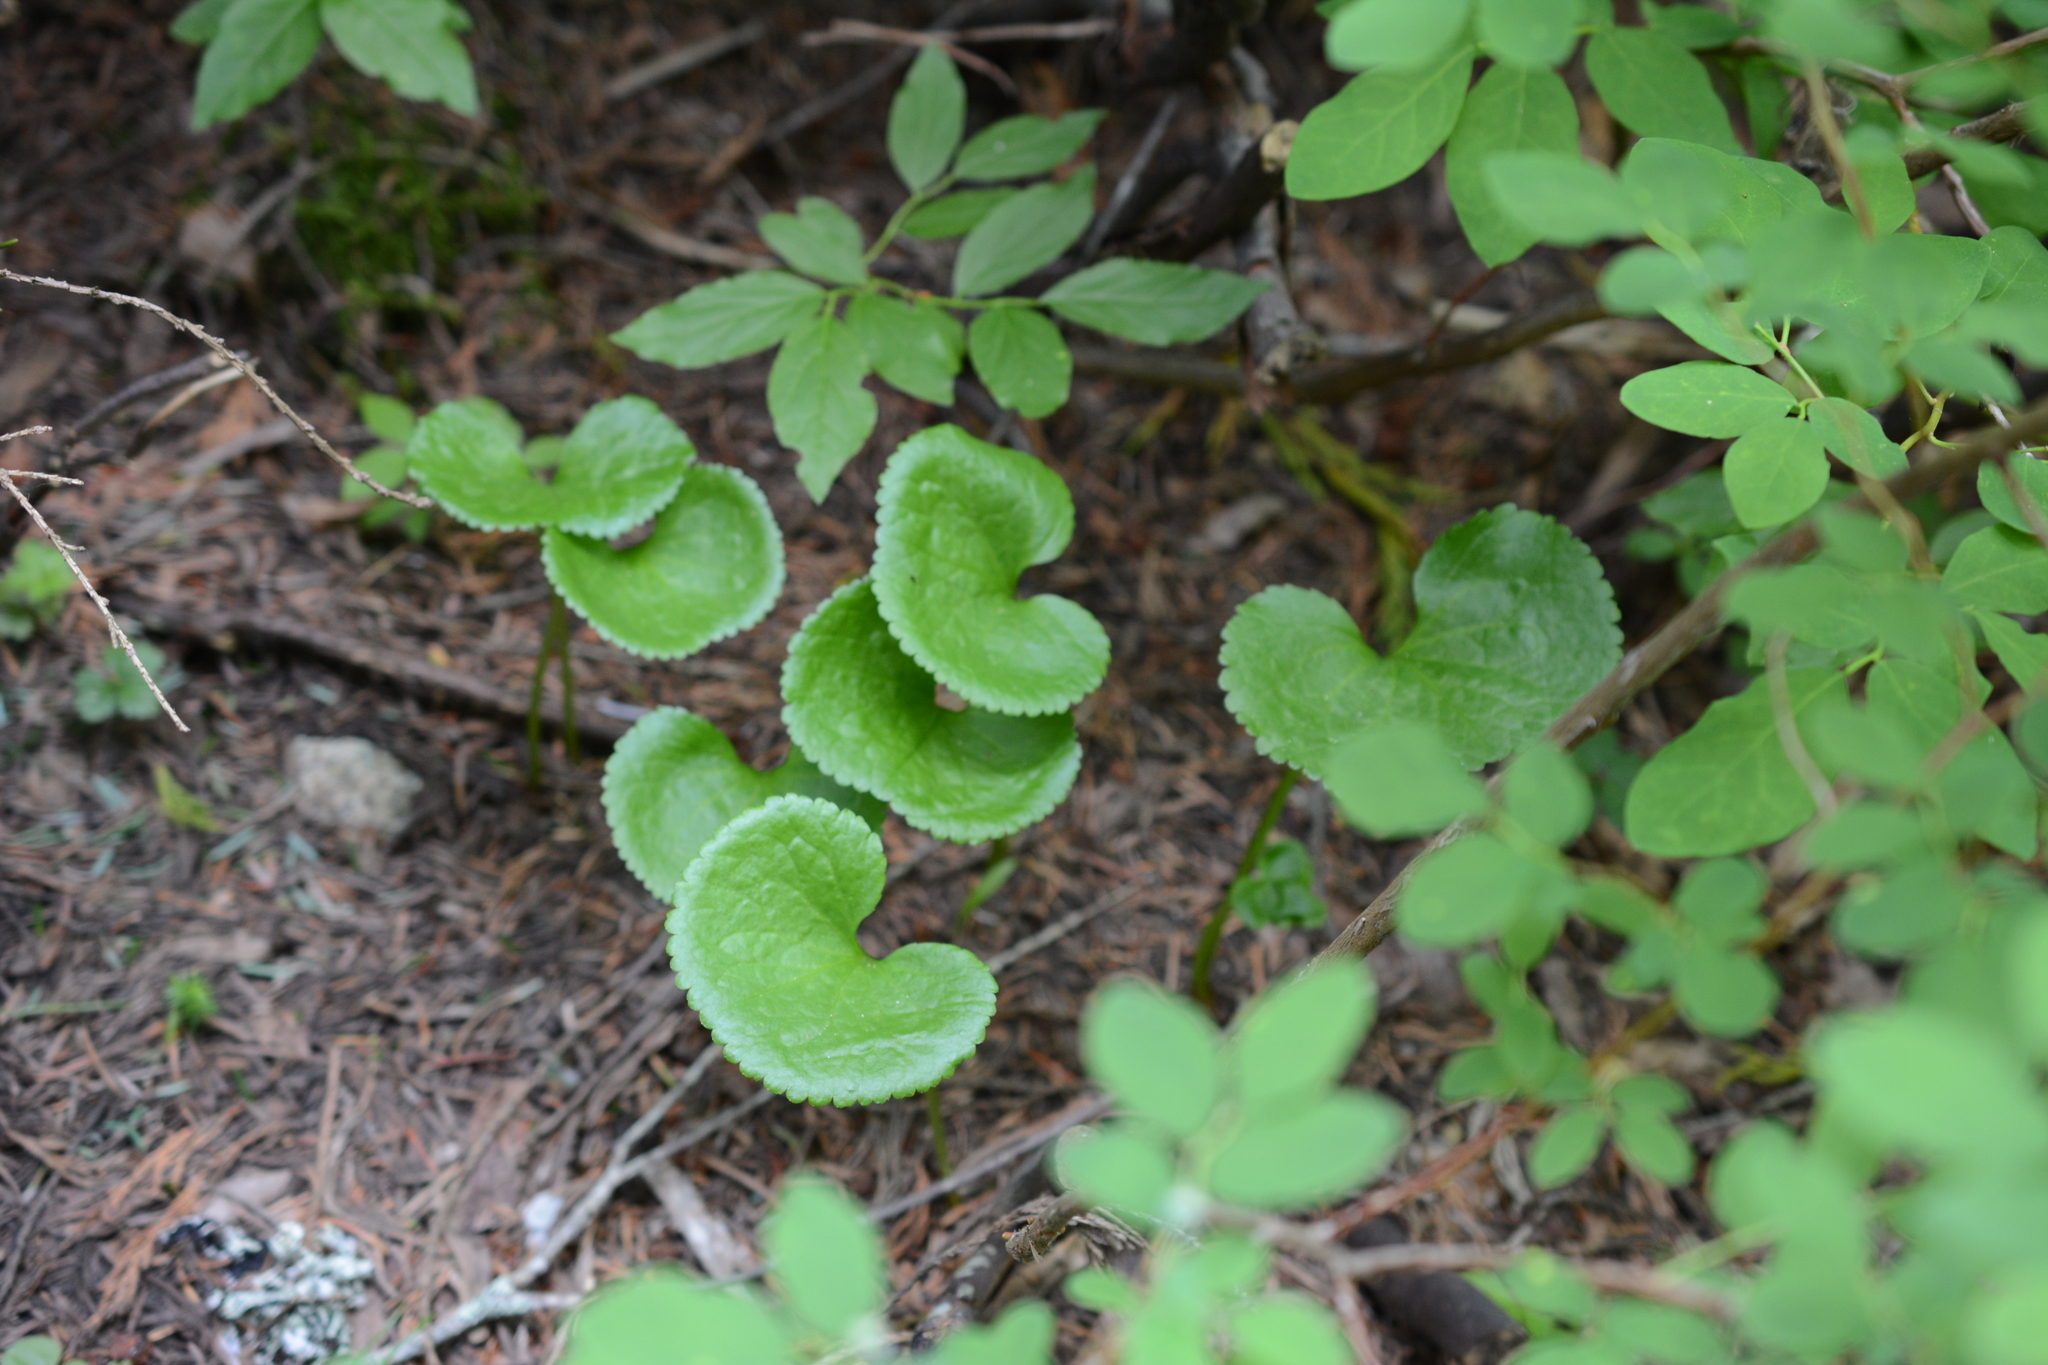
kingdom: Plantae
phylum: Tracheophyta
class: Magnoliopsida
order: Asterales
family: Menyanthaceae
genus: Nephrophyllidium
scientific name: Nephrophyllidium crista-galli
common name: Deer-cabbage
